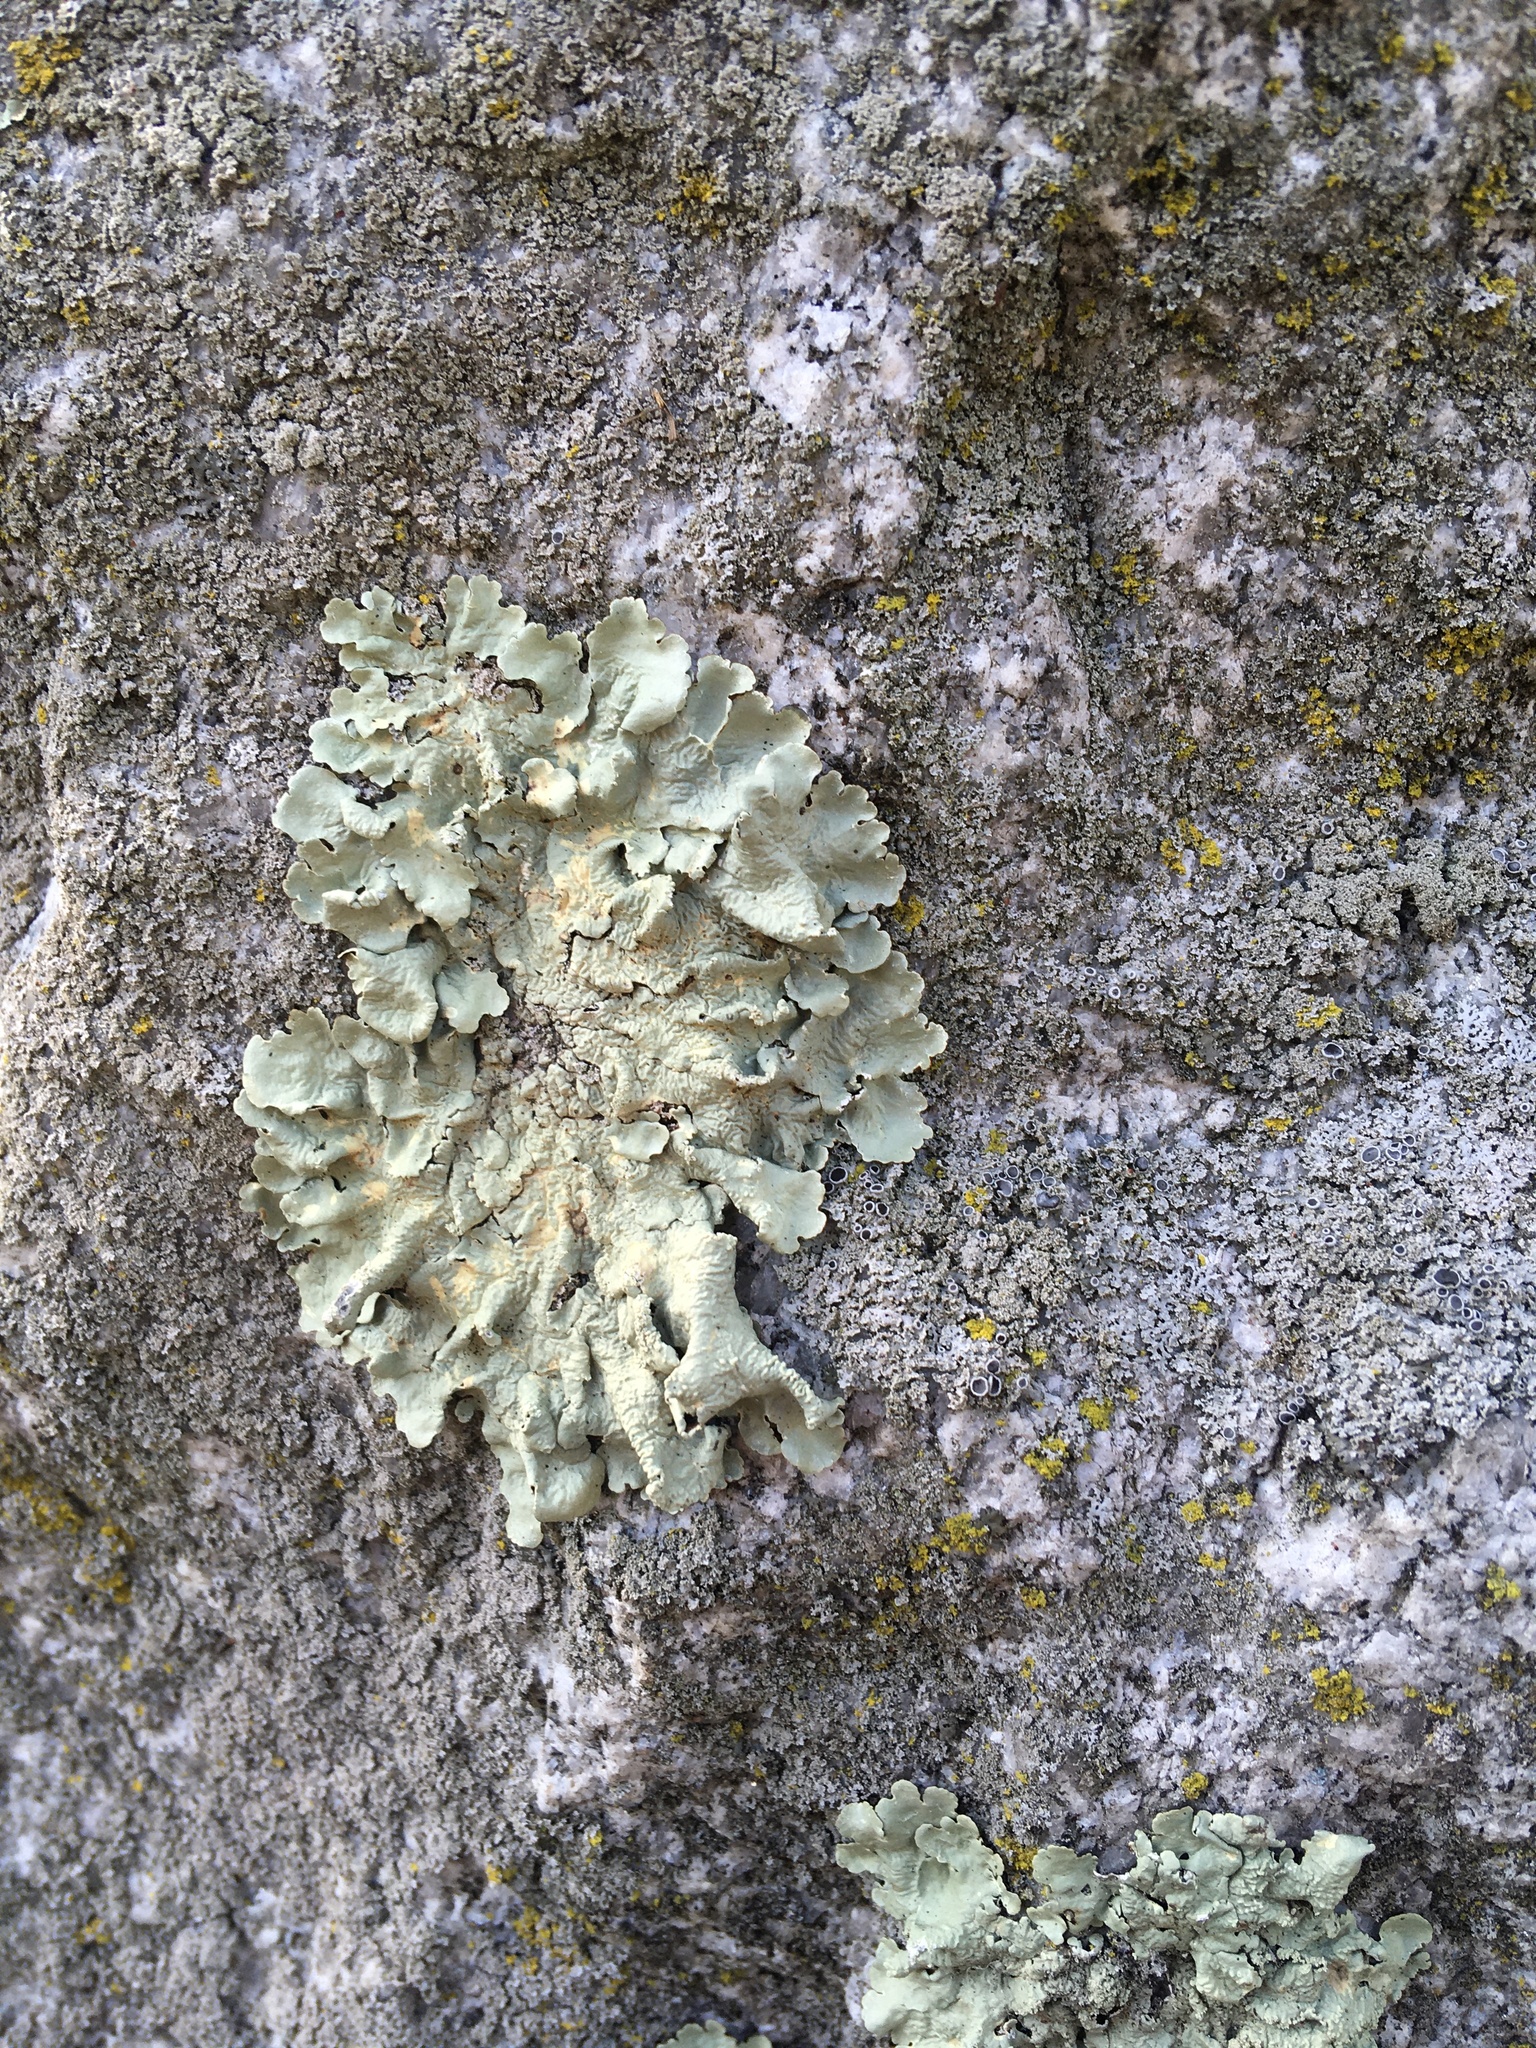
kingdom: Fungi
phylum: Ascomycota
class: Lecanoromycetes
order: Lecanorales
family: Parmeliaceae
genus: Flavoparmelia
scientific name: Flavoparmelia caperata
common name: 40-mile per hour lichen
